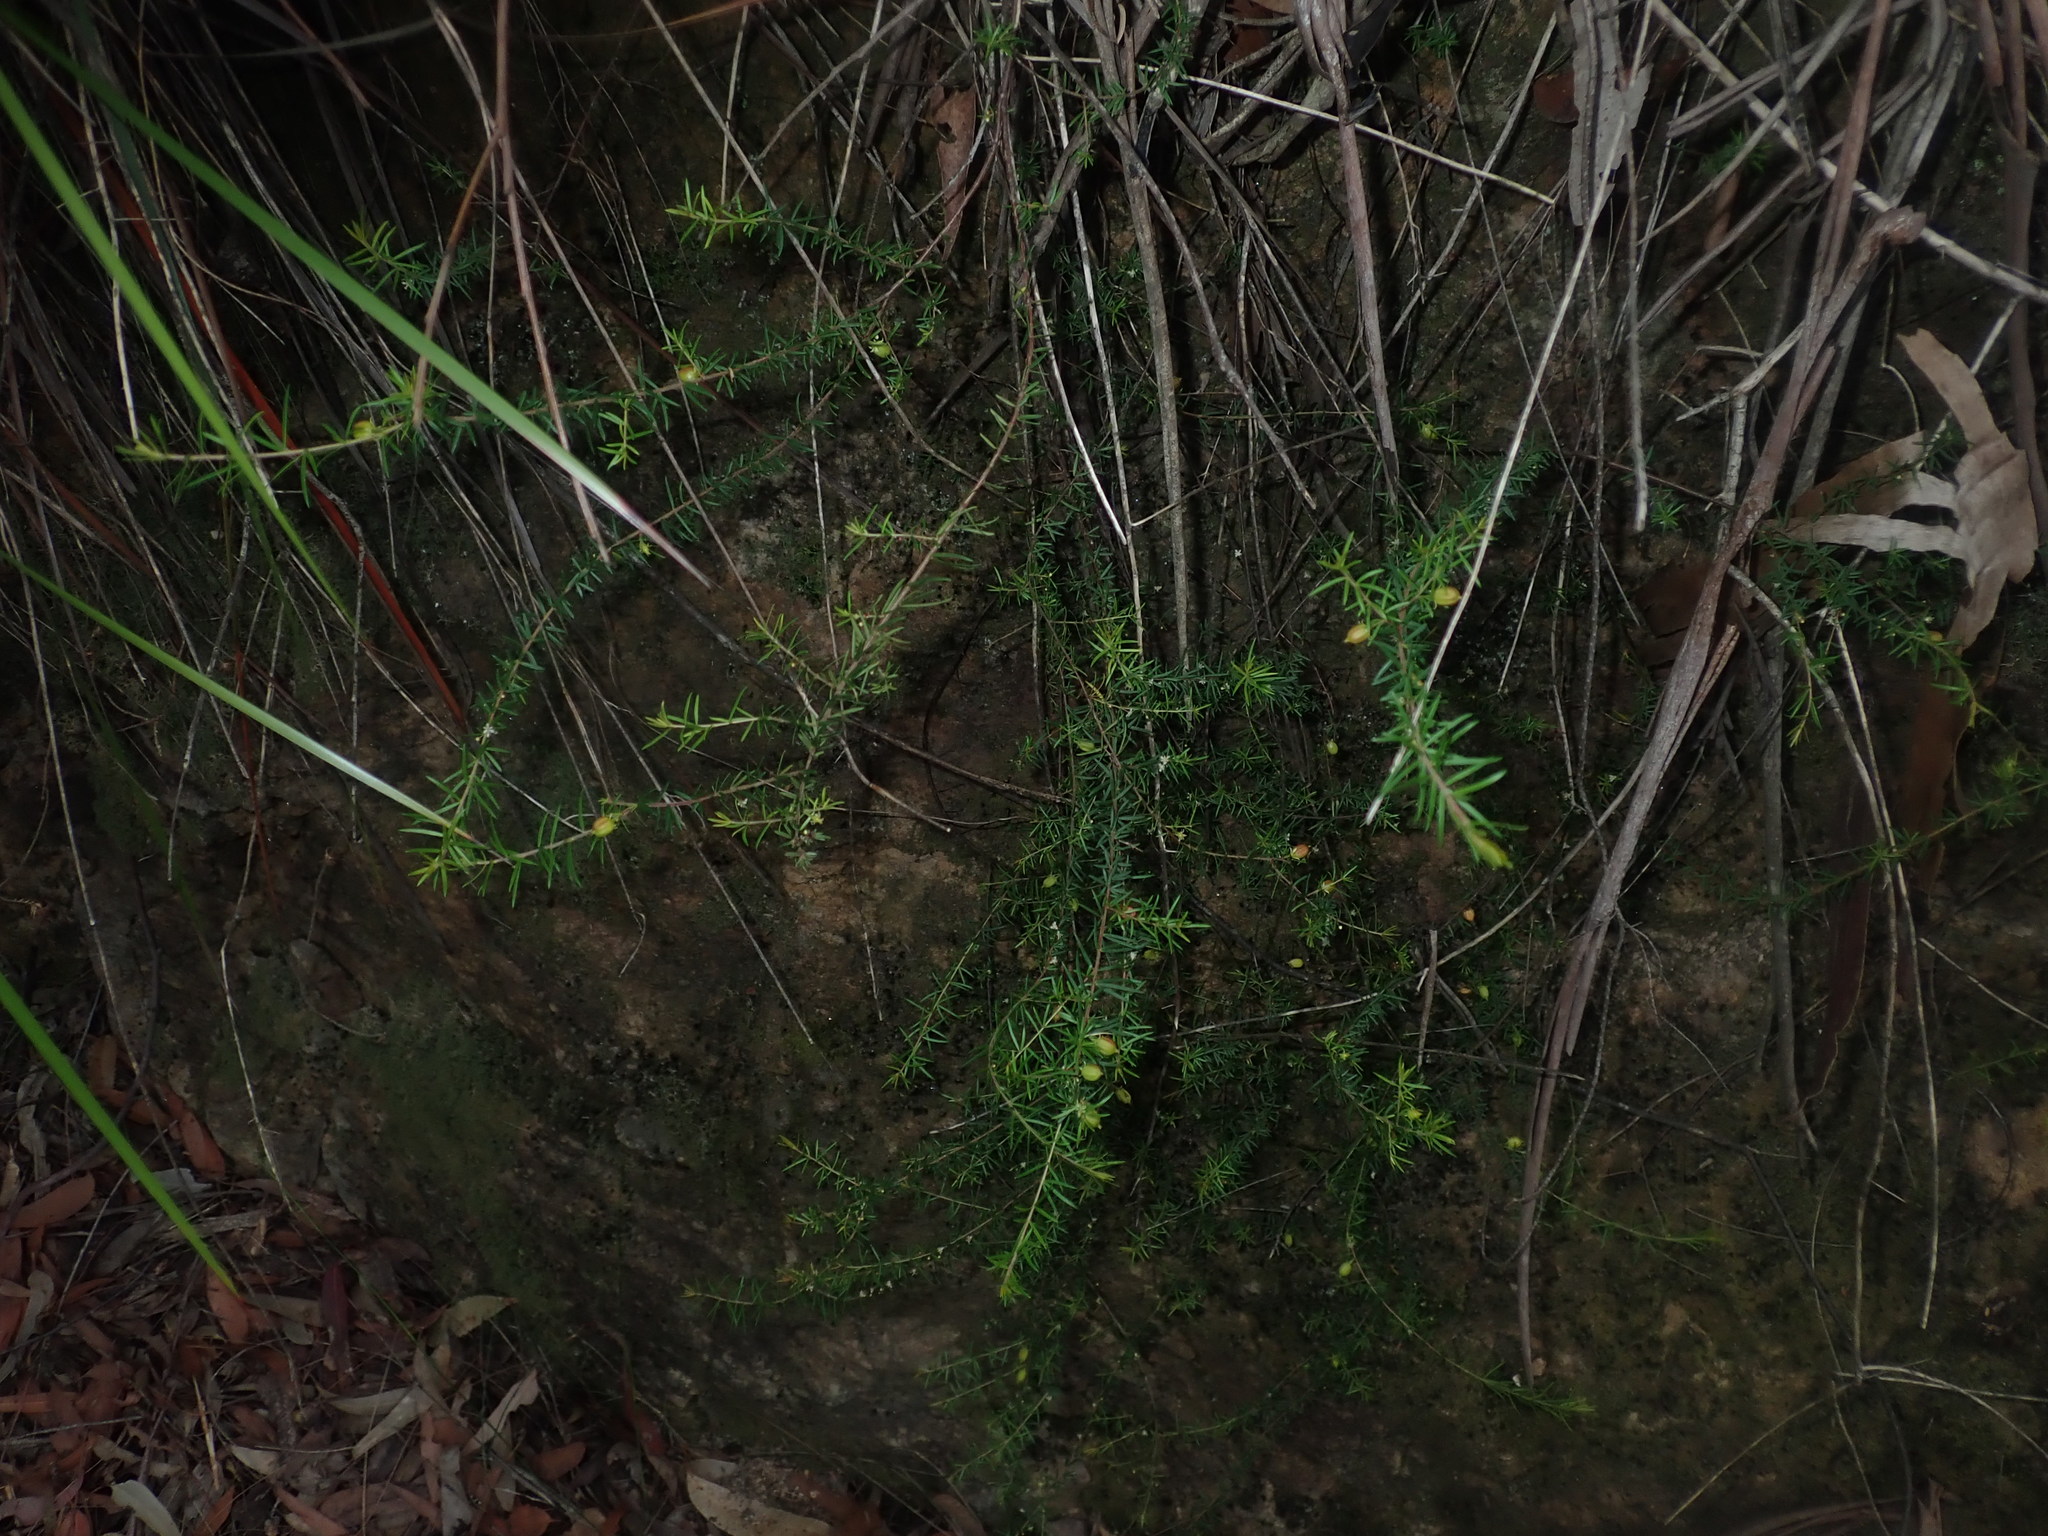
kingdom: Plantae
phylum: Tracheophyta
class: Magnoliopsida
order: Malpighiales
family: Picrodendraceae
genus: Micrantheum
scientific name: Micrantheum ericoides
